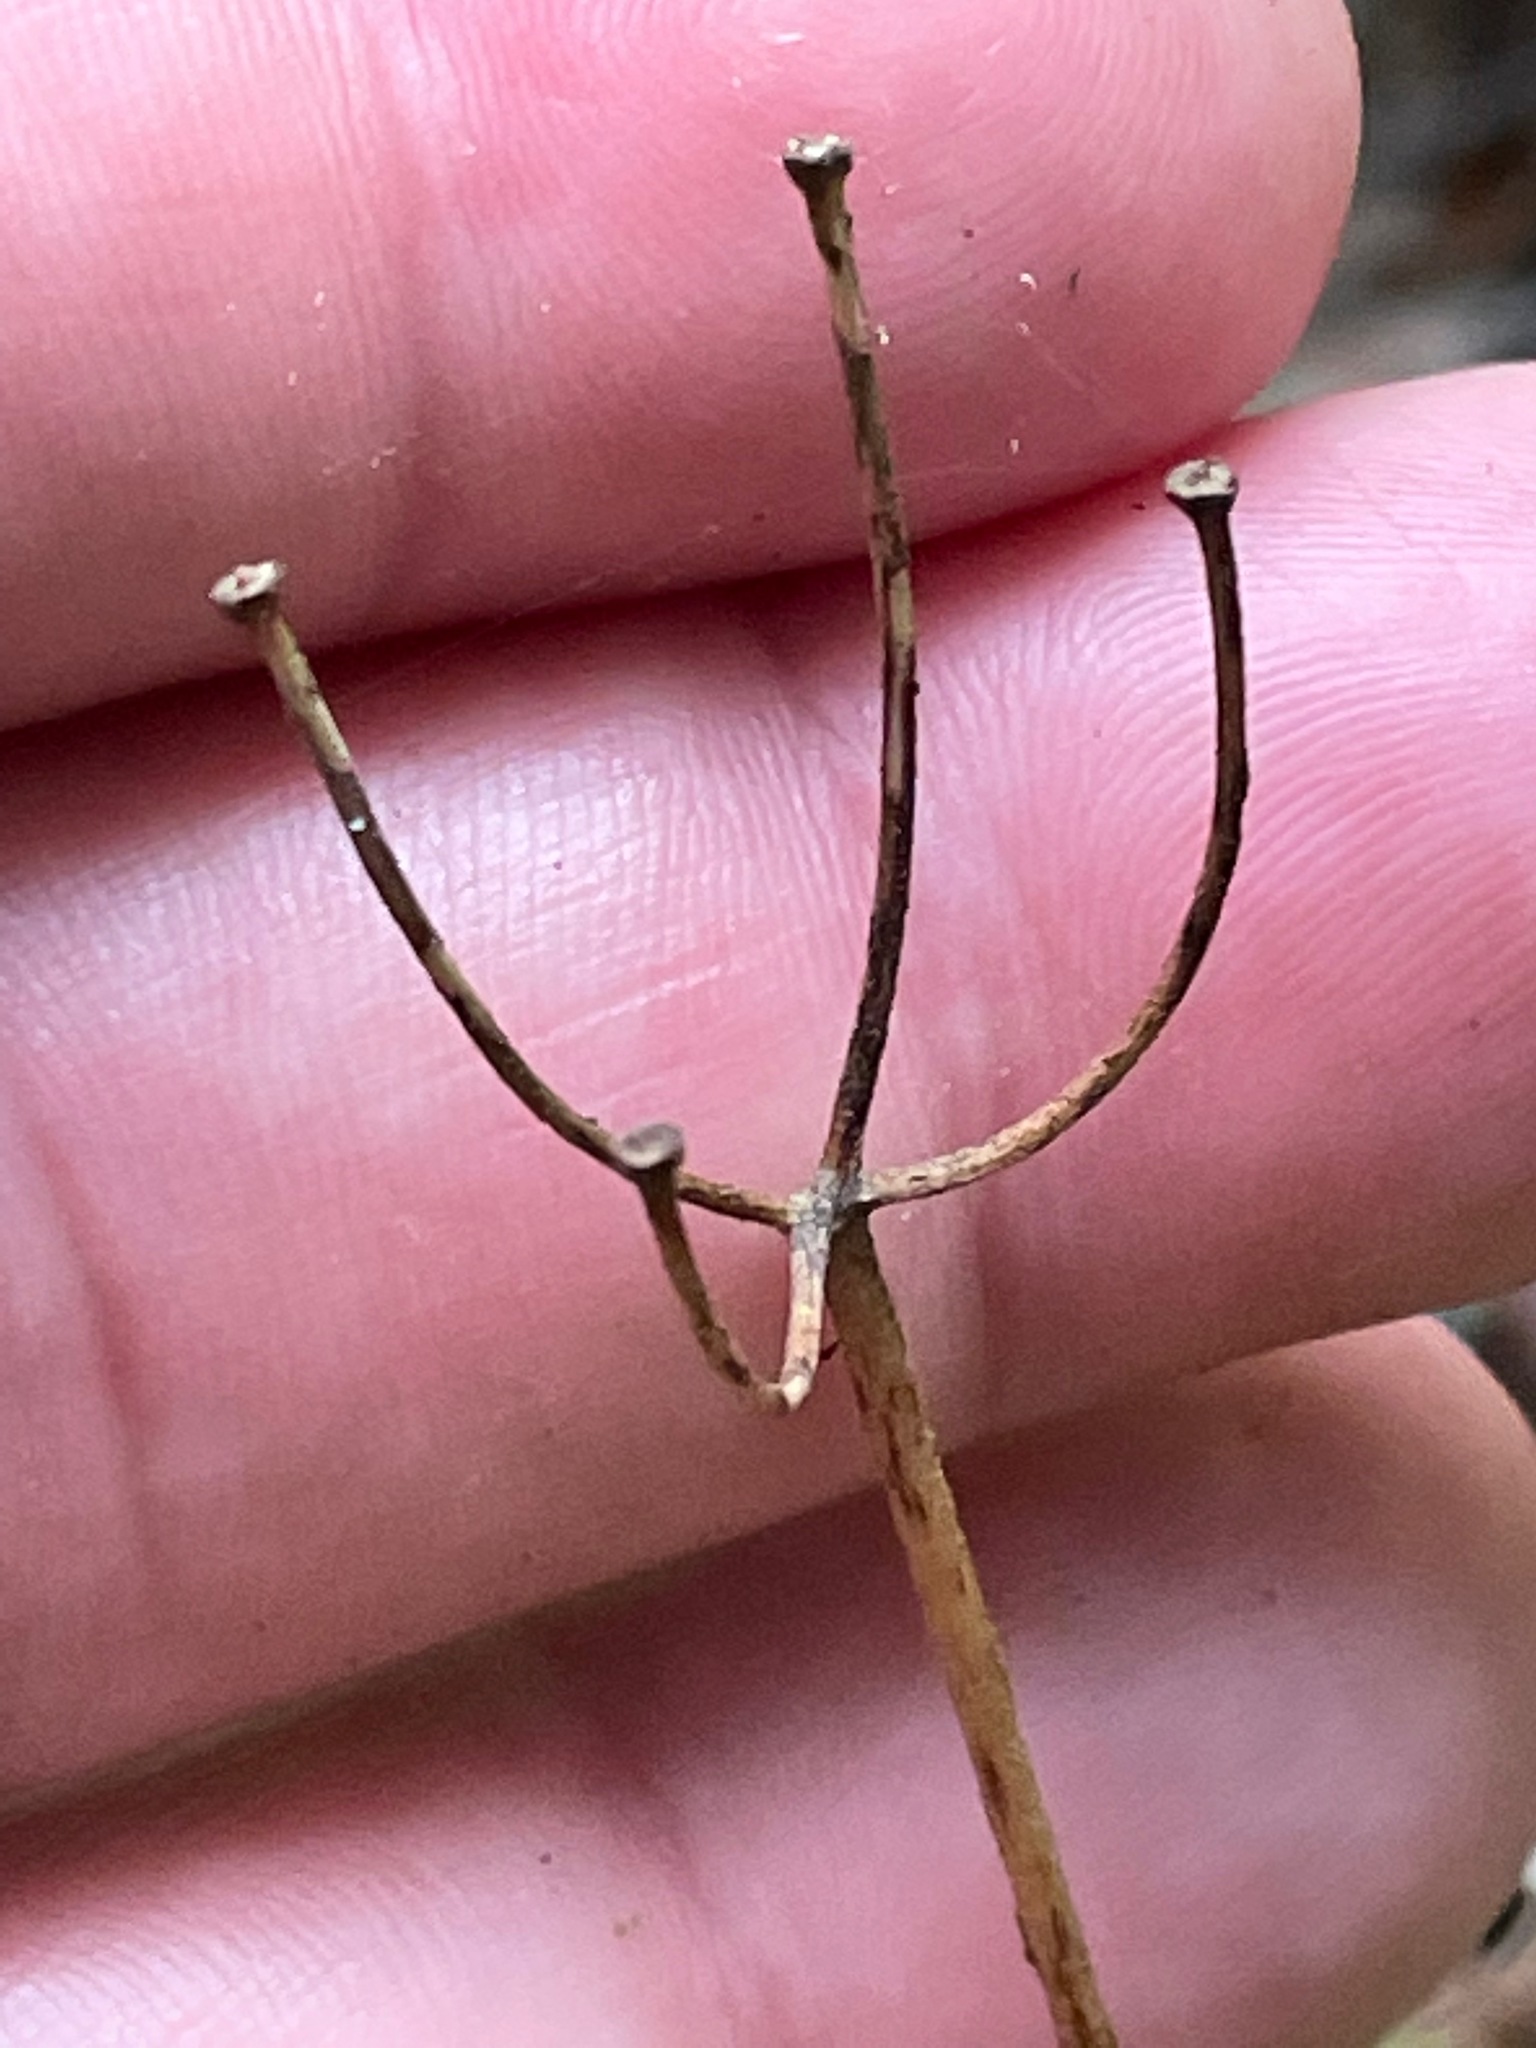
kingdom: Plantae
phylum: Tracheophyta
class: Liliopsida
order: Liliales
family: Liliaceae
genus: Clintonia
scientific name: Clintonia borealis
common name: Yellow clintonia
